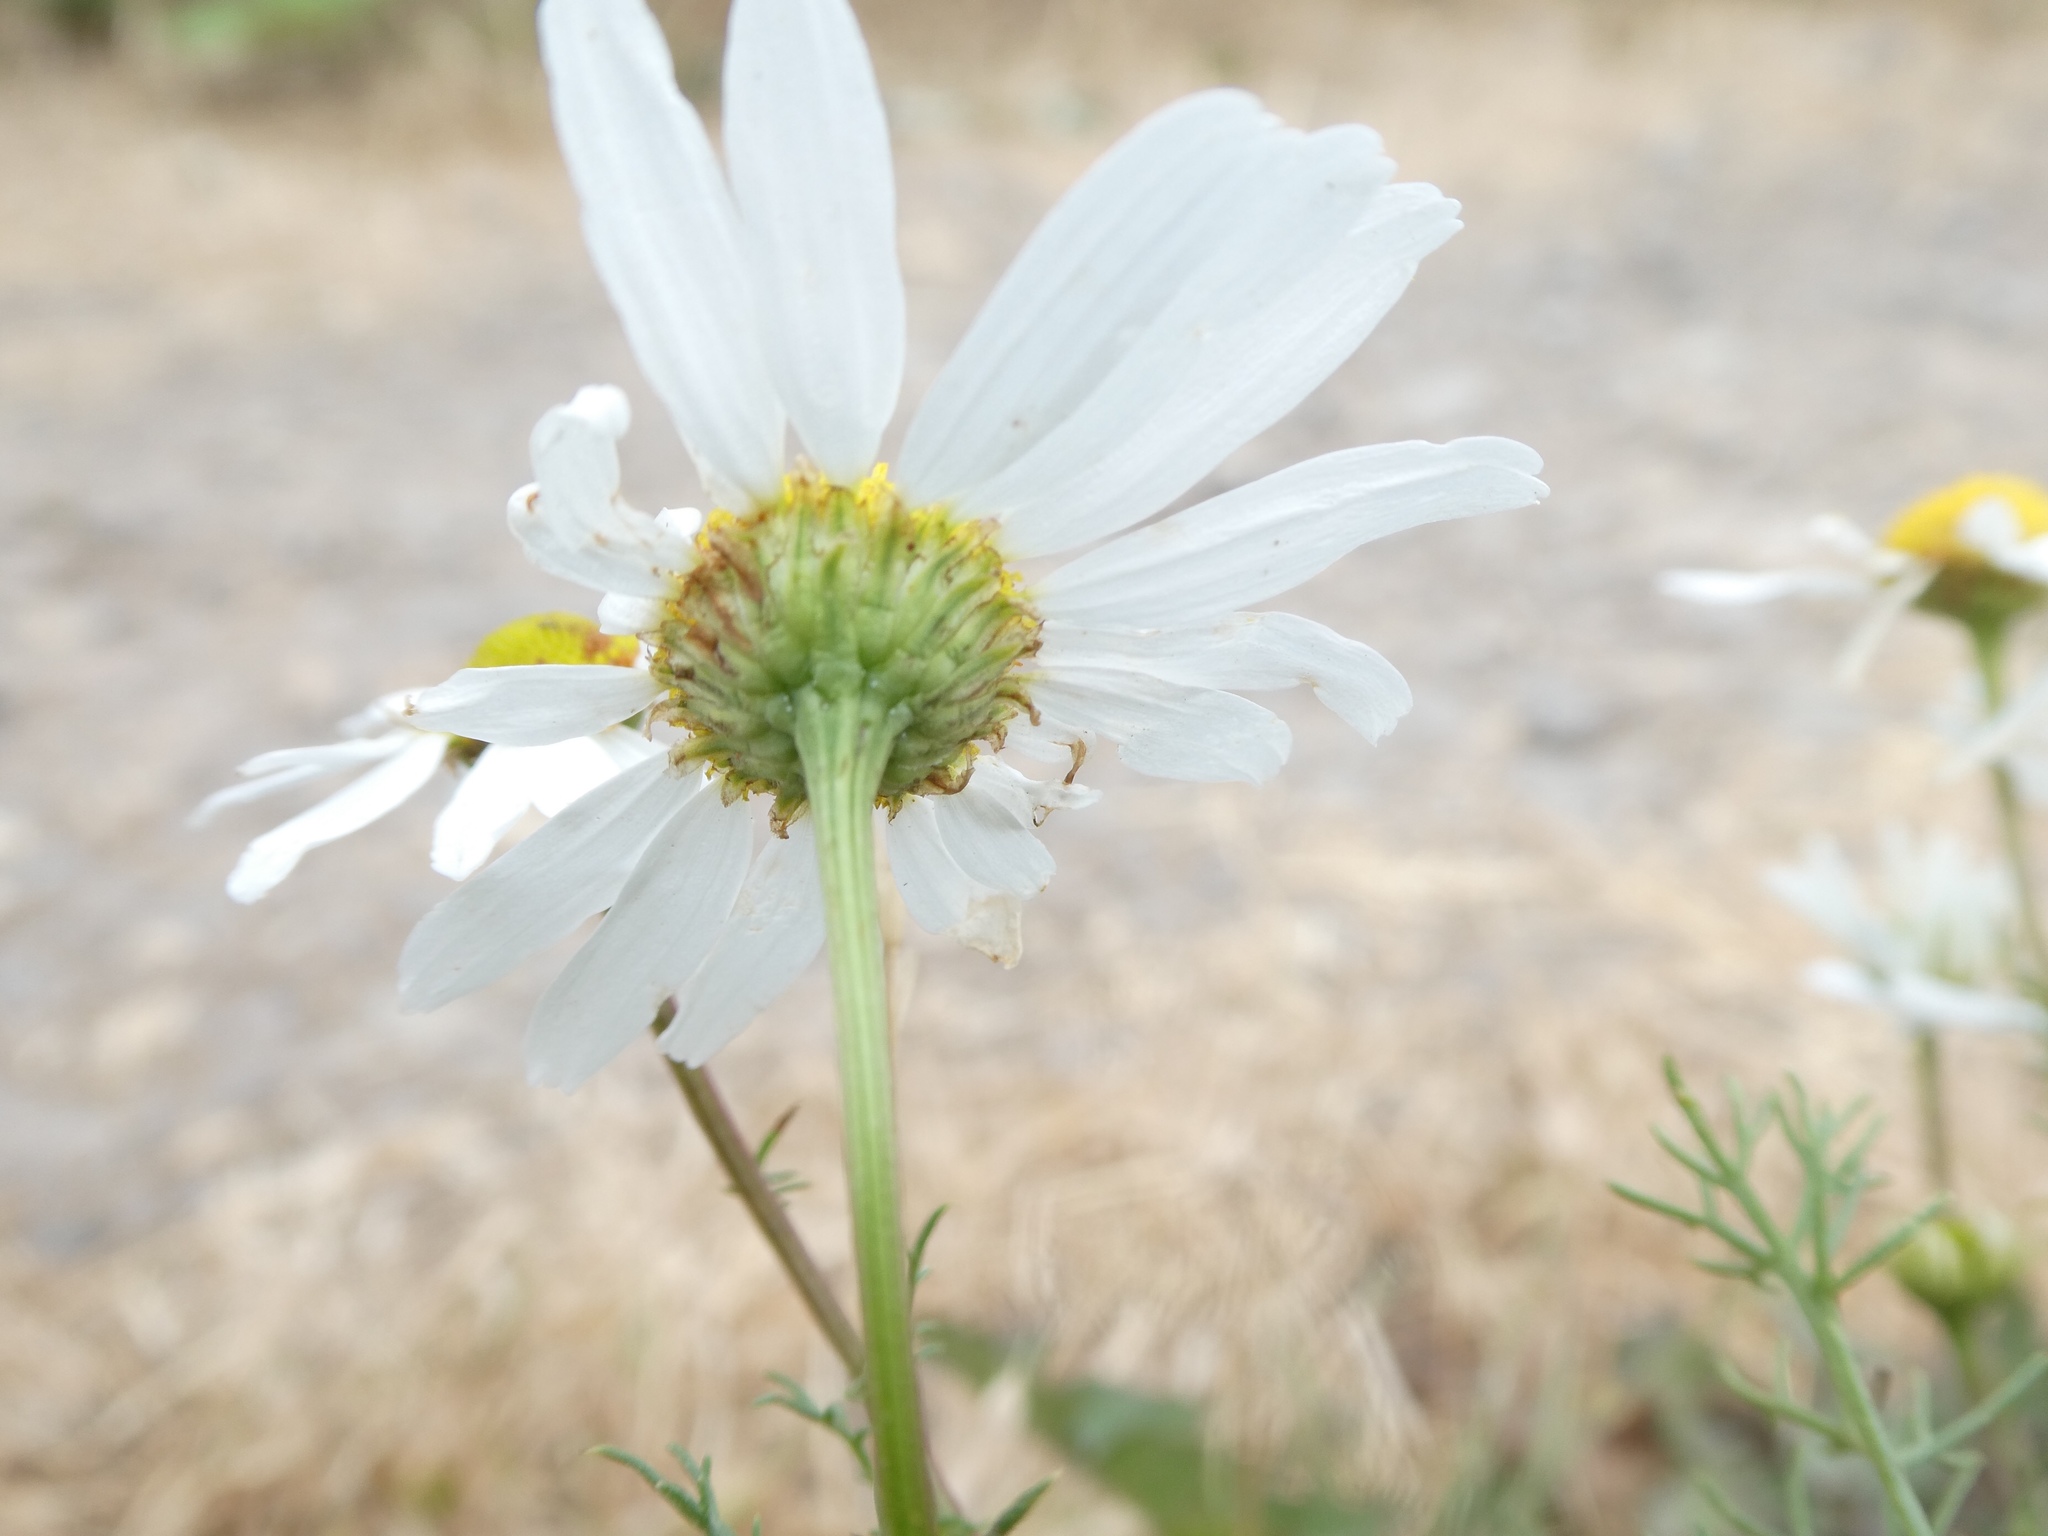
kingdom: Plantae
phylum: Tracheophyta
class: Magnoliopsida
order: Asterales
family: Asteraceae
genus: Matricaria
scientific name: Matricaria chamomilla
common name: Scented mayweed
